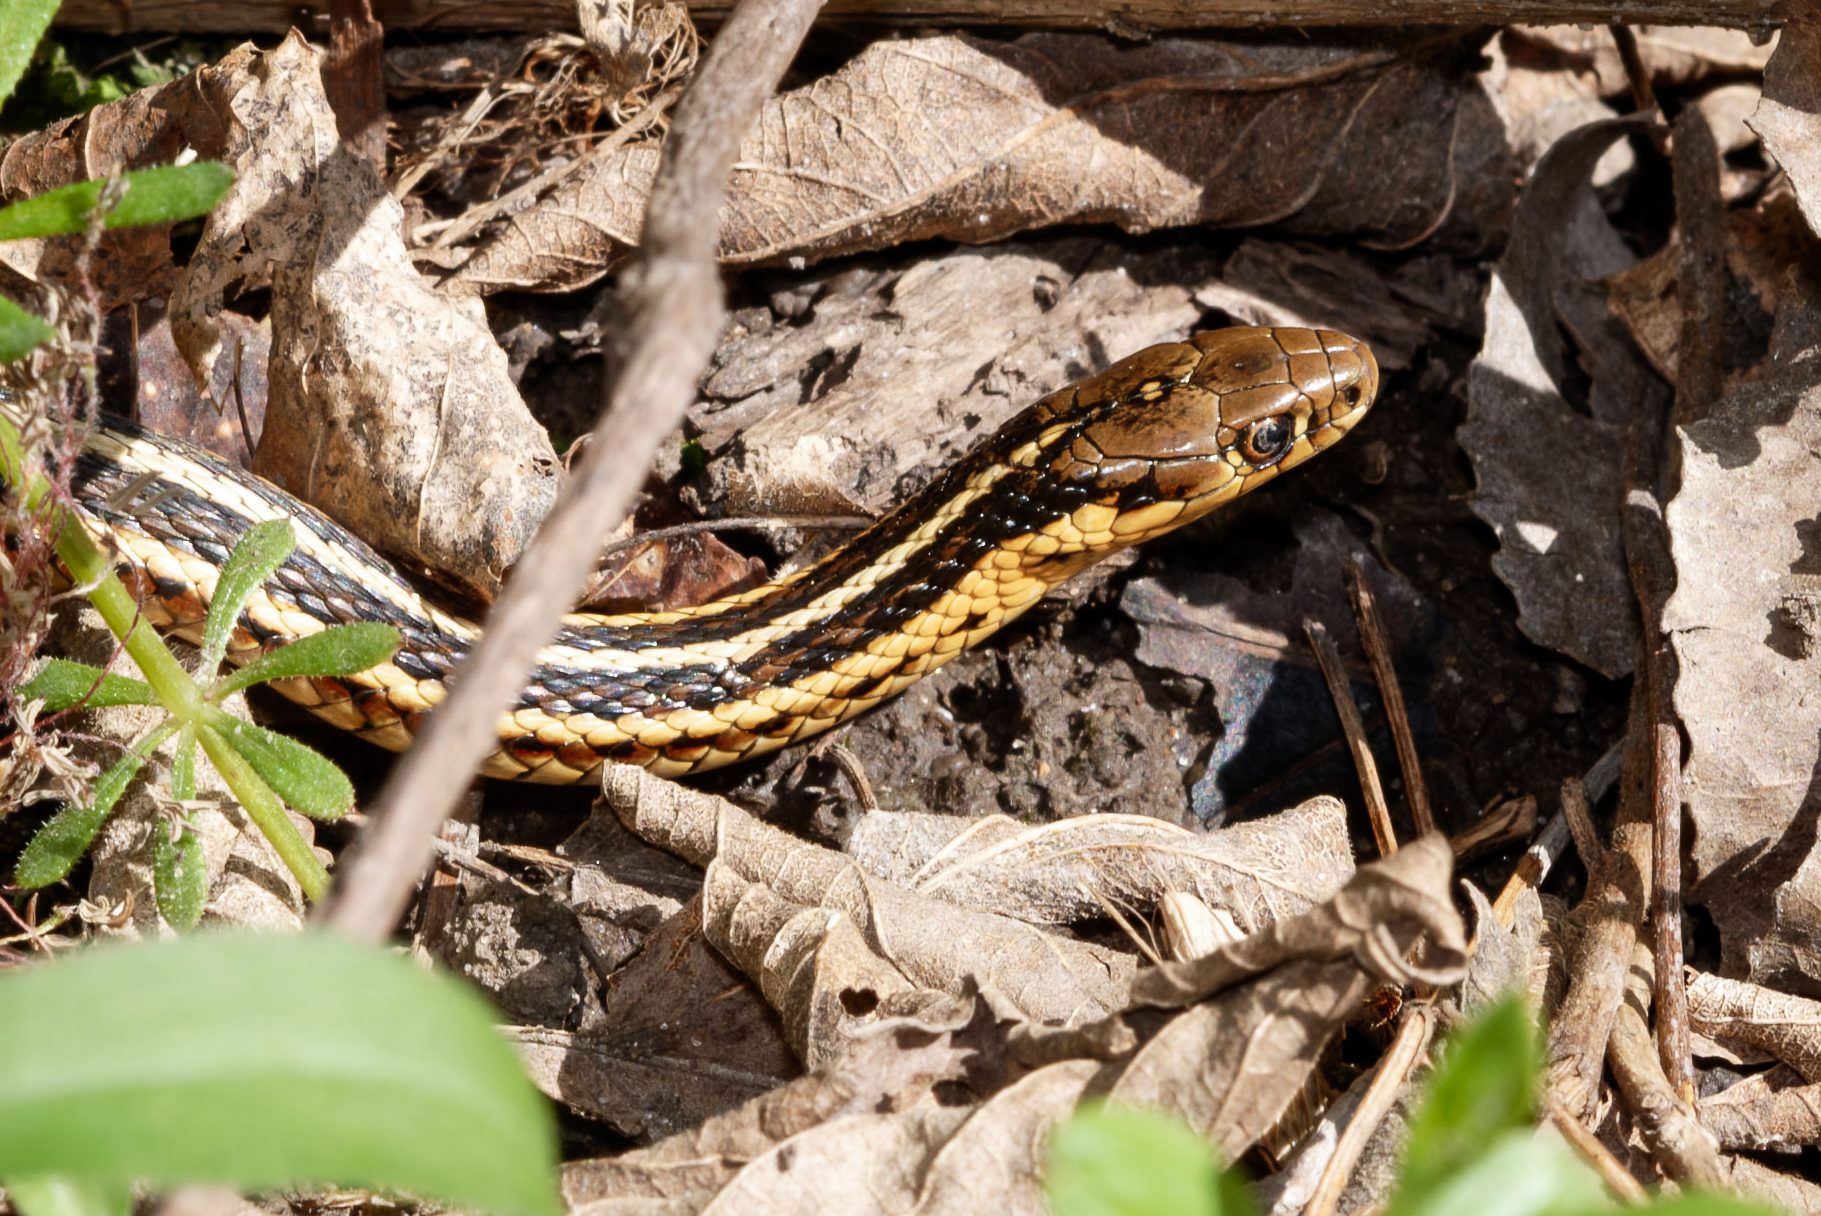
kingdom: Animalia
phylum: Chordata
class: Squamata
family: Colubridae
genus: Thamnophis
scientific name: Thamnophis butleri
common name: Butler's garter snake
